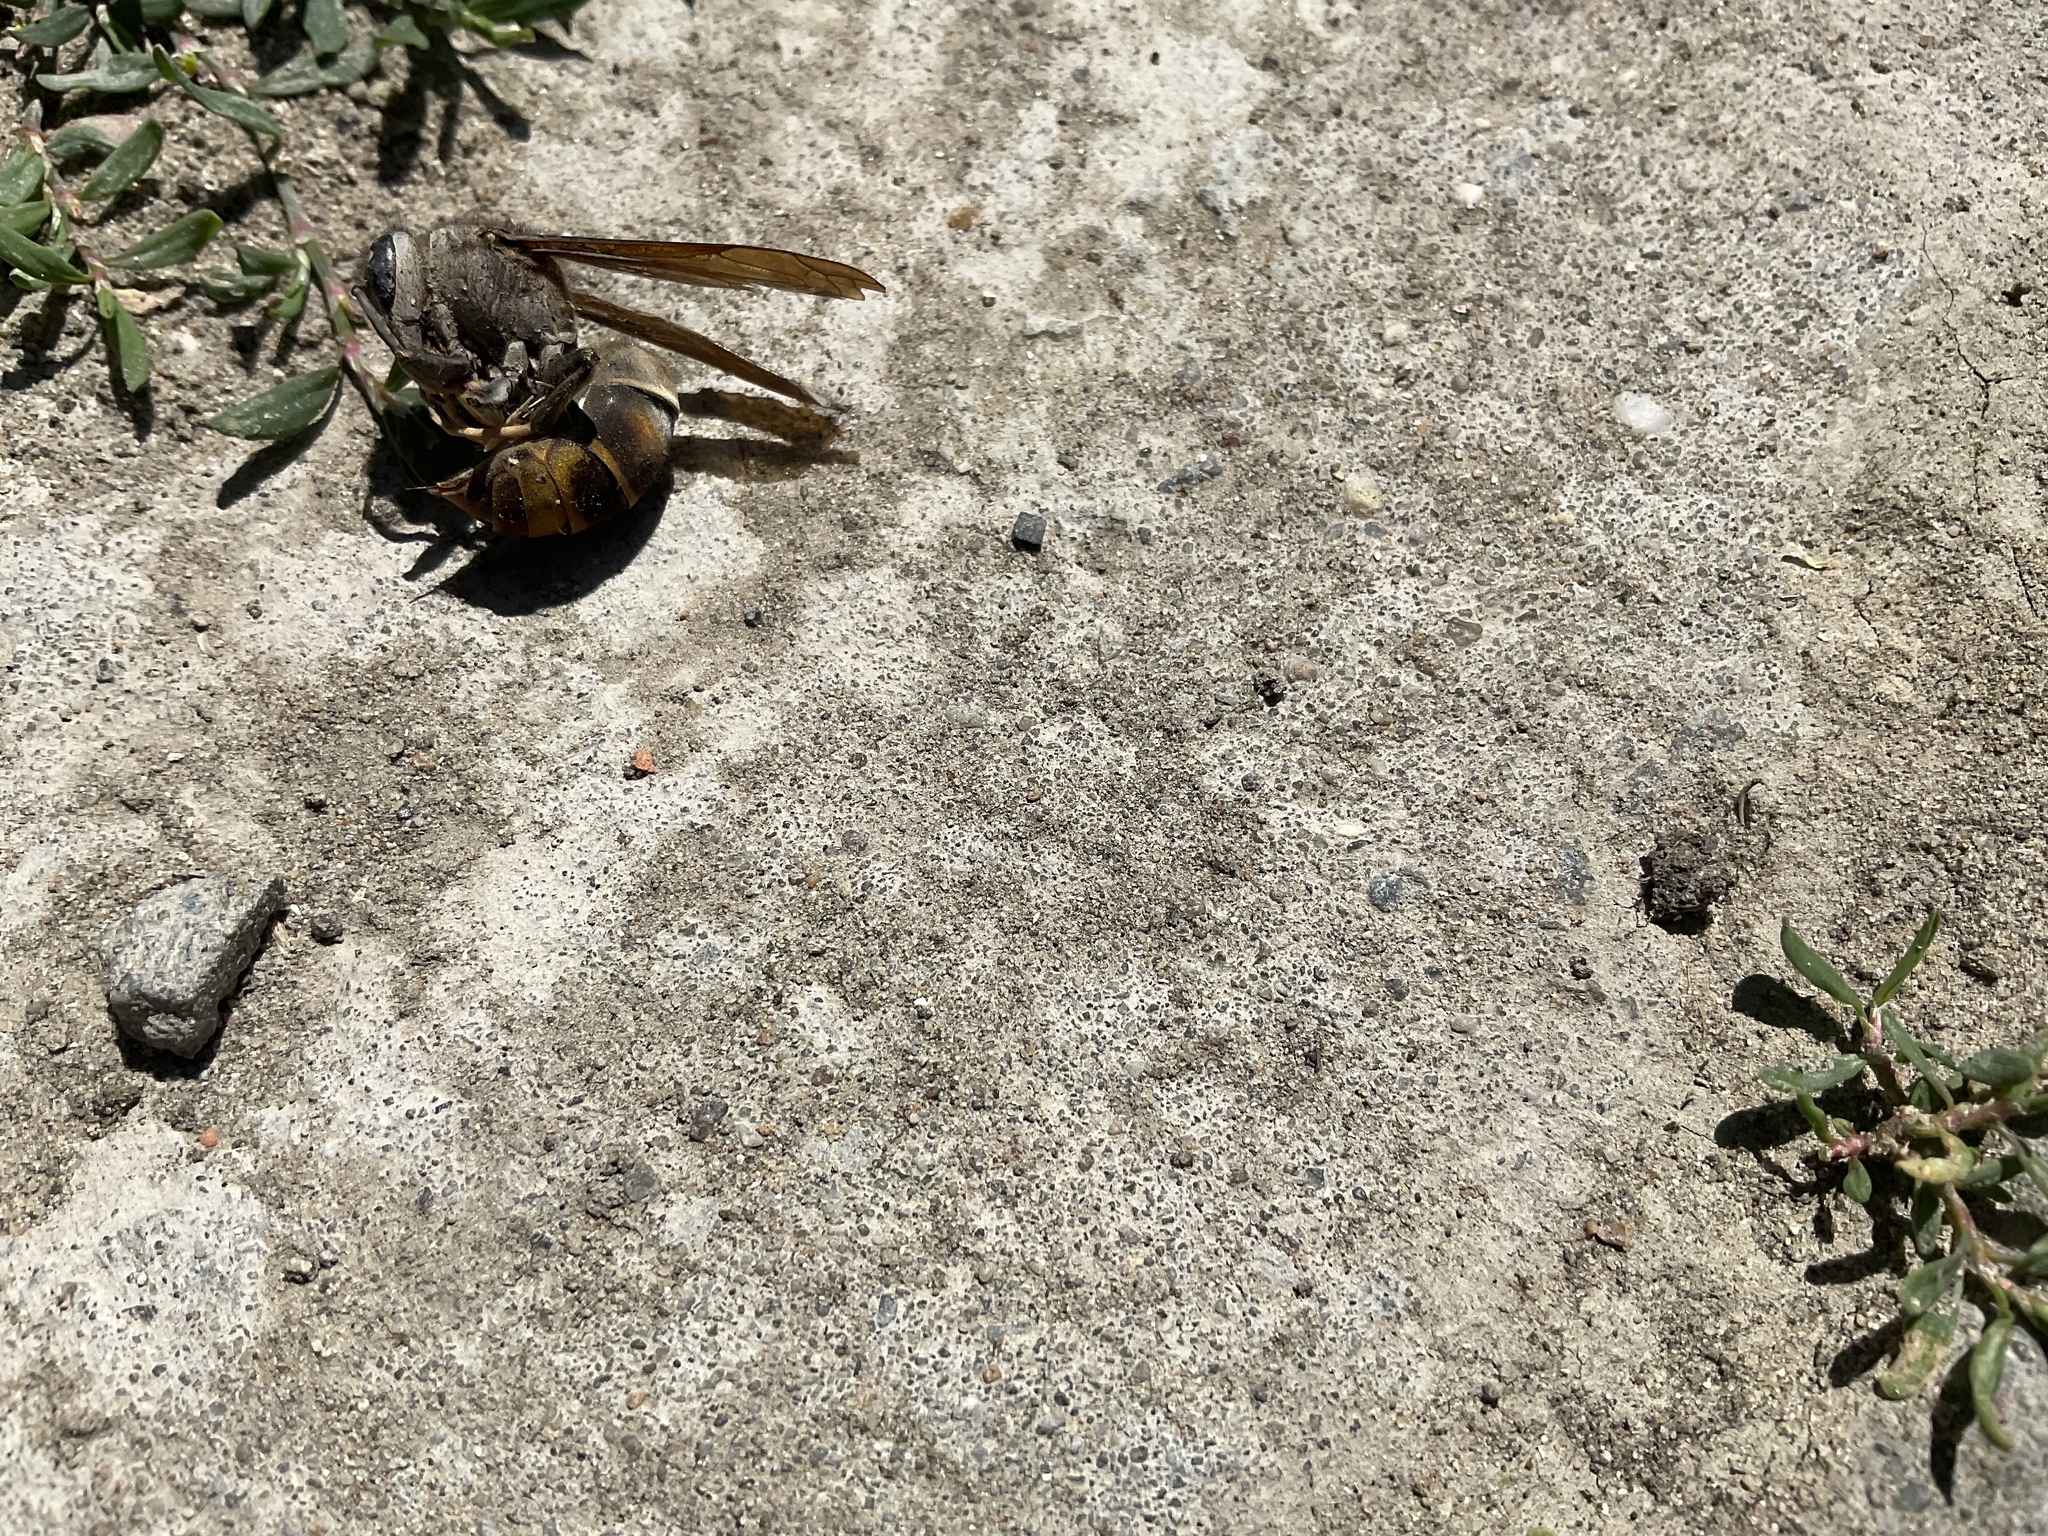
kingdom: Animalia
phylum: Arthropoda
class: Insecta
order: Hymenoptera
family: Vespidae
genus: Vespa
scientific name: Vespa velutina
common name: Asian hornet
